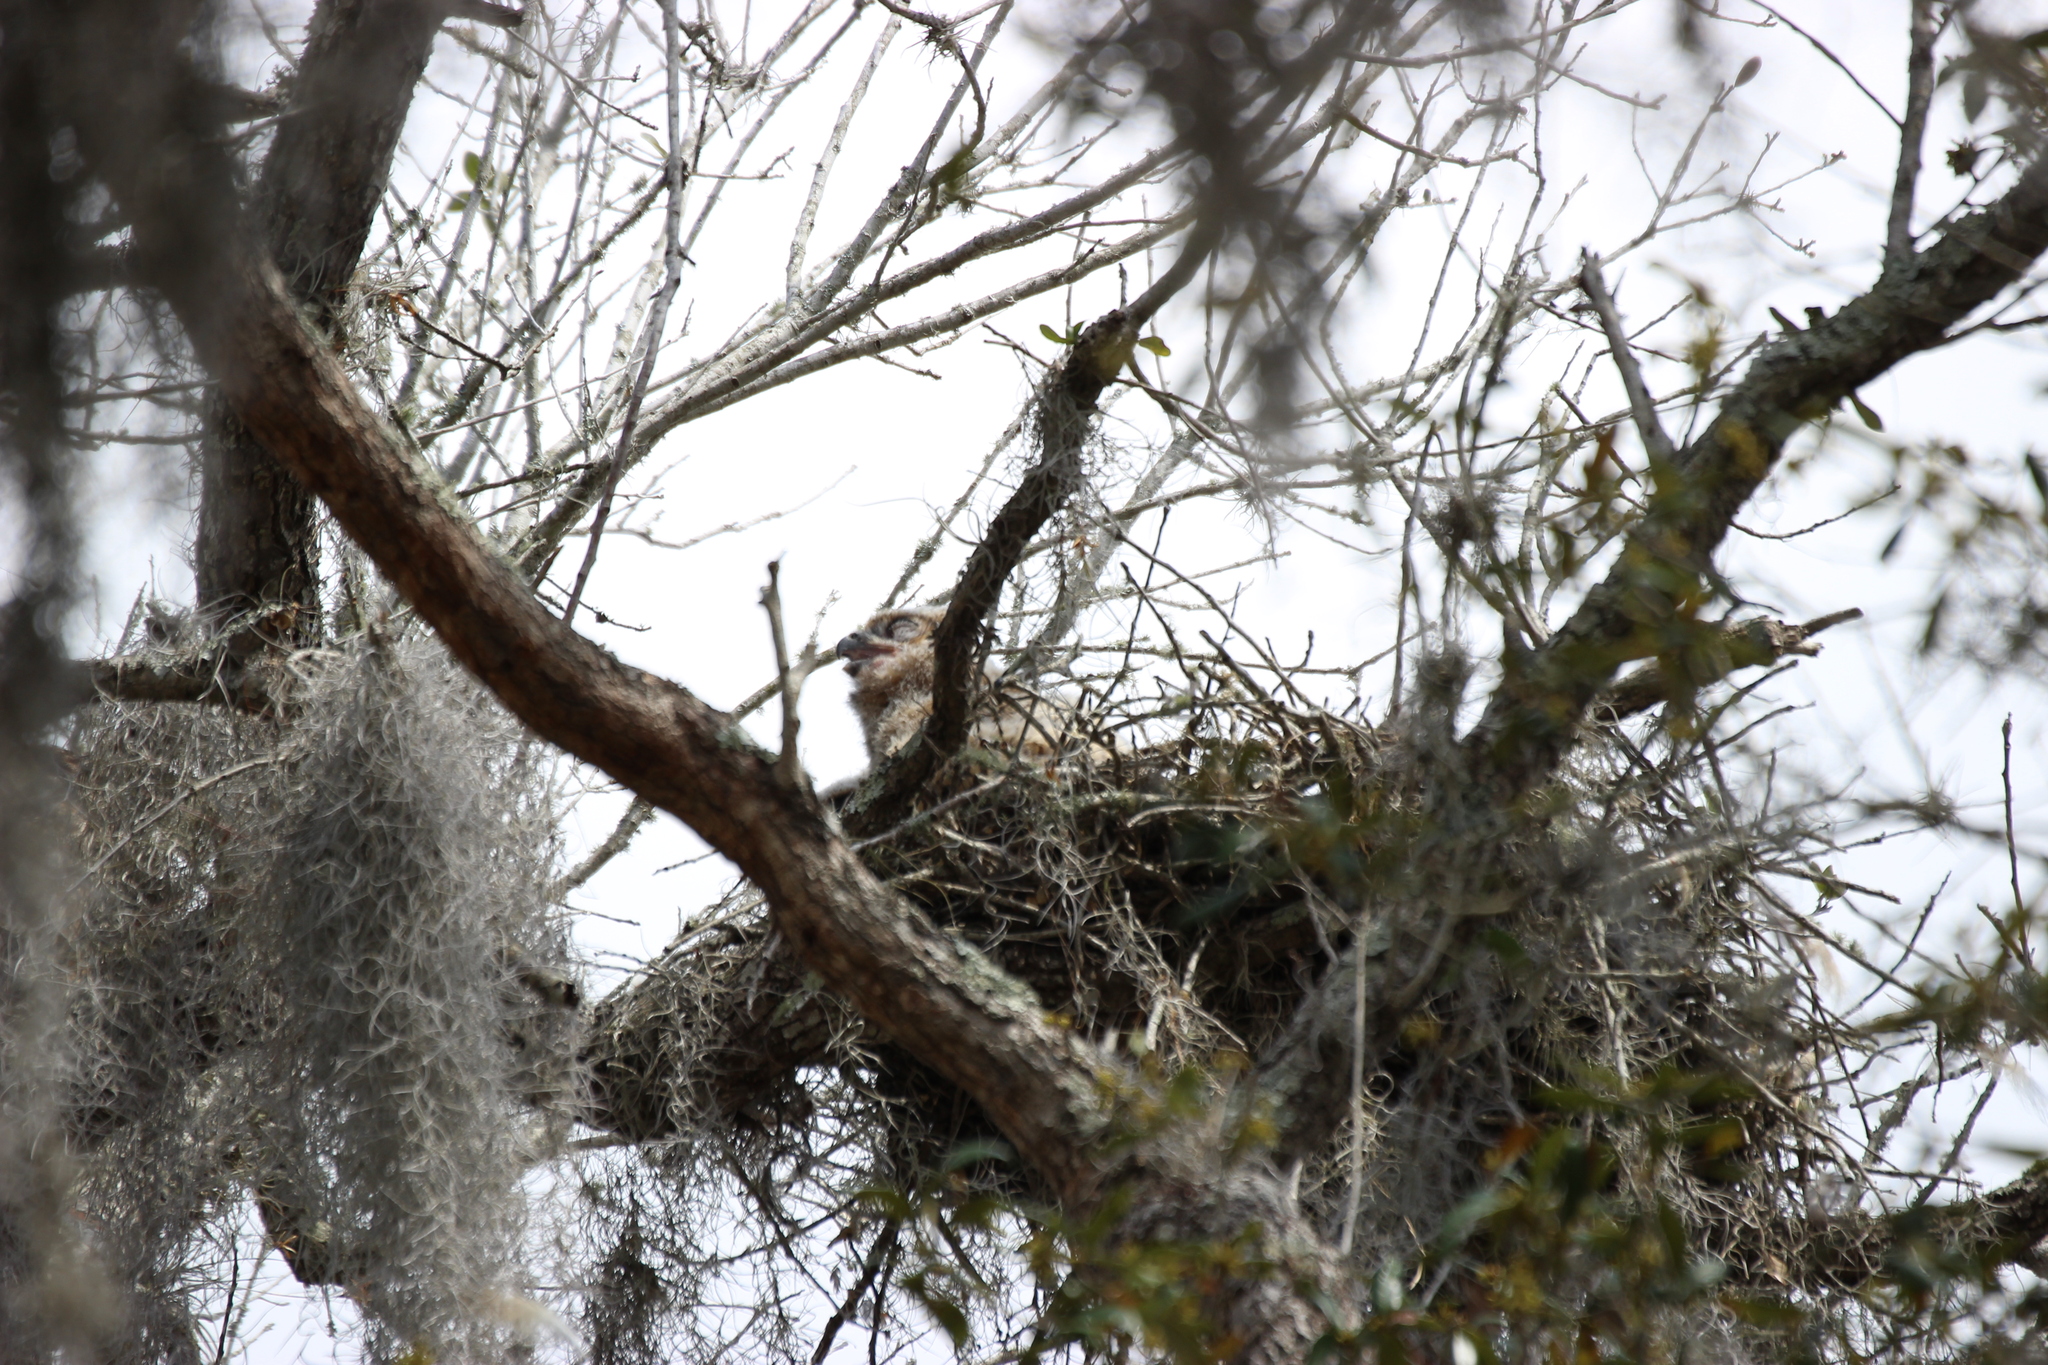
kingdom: Animalia
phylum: Chordata
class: Aves
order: Strigiformes
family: Strigidae
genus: Bubo
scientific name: Bubo virginianus
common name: Great horned owl
